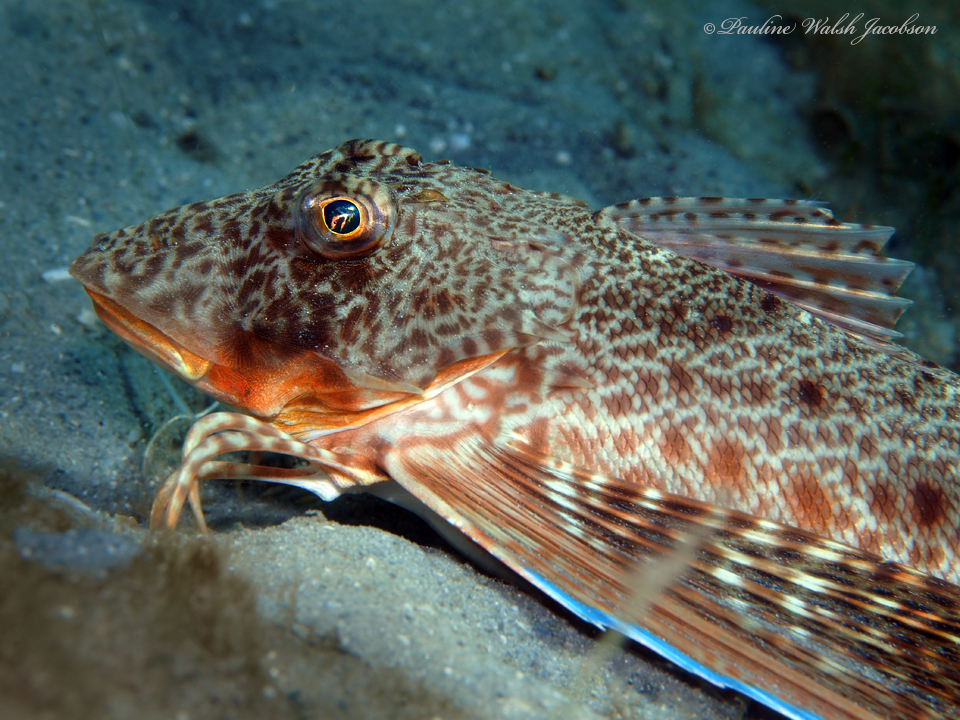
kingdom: Animalia
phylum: Chordata
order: Scorpaeniformes
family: Triglidae
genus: Prionotus
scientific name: Prionotus rubio
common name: Blackwing searobin
